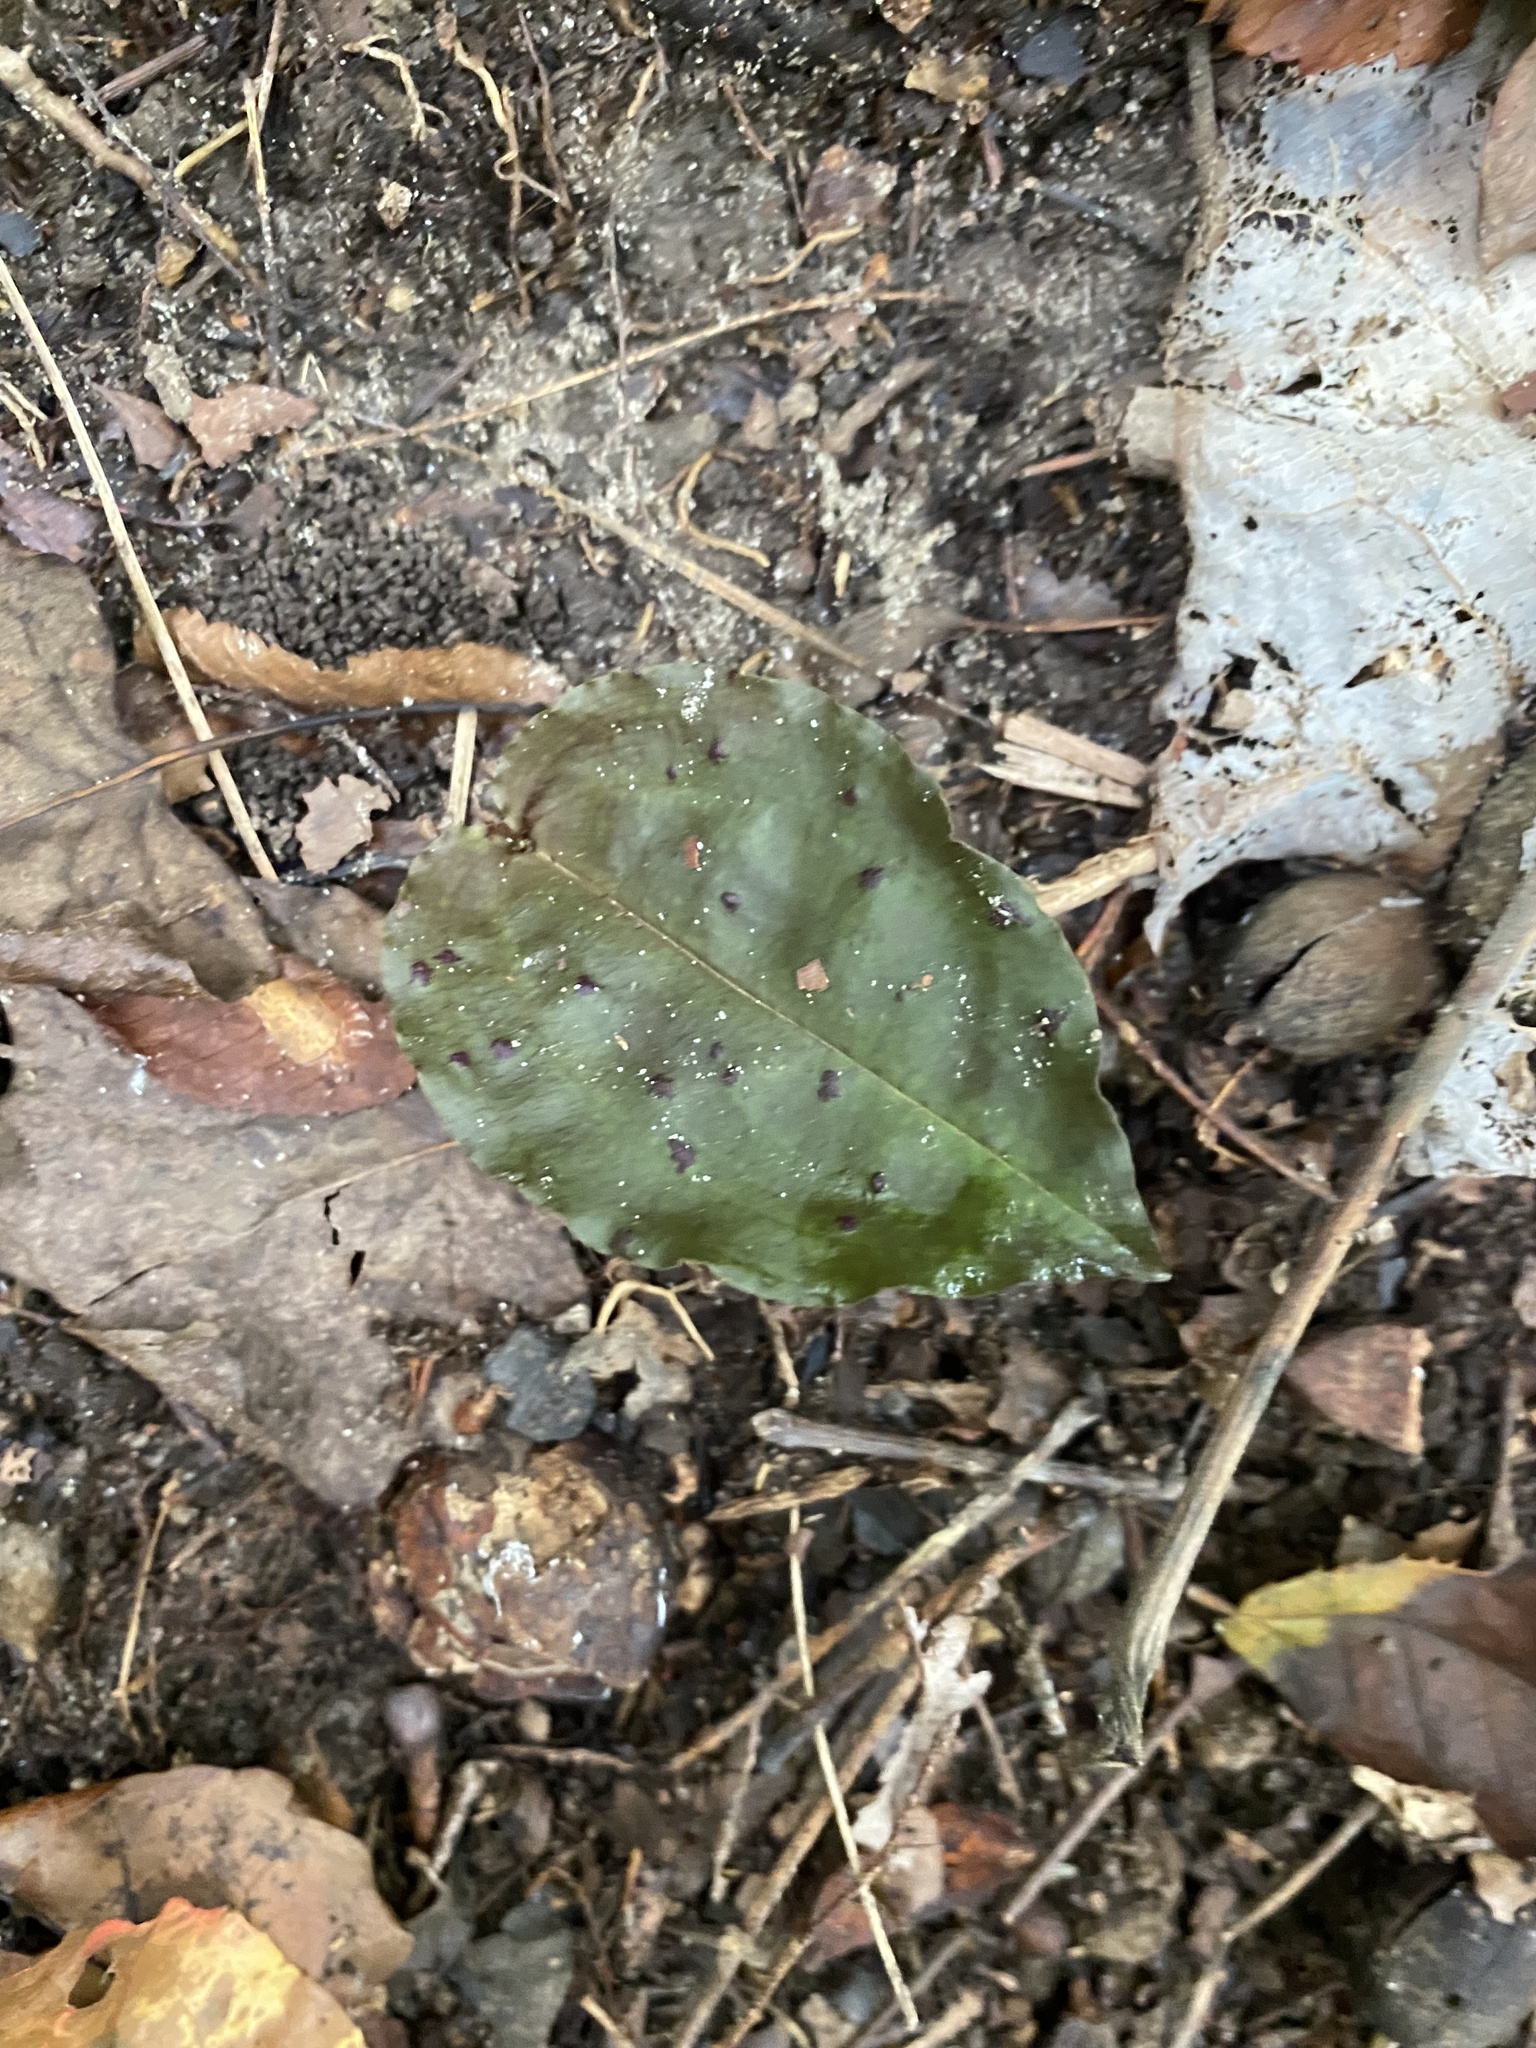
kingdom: Plantae
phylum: Tracheophyta
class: Liliopsida
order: Asparagales
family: Orchidaceae
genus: Tipularia
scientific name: Tipularia discolor
